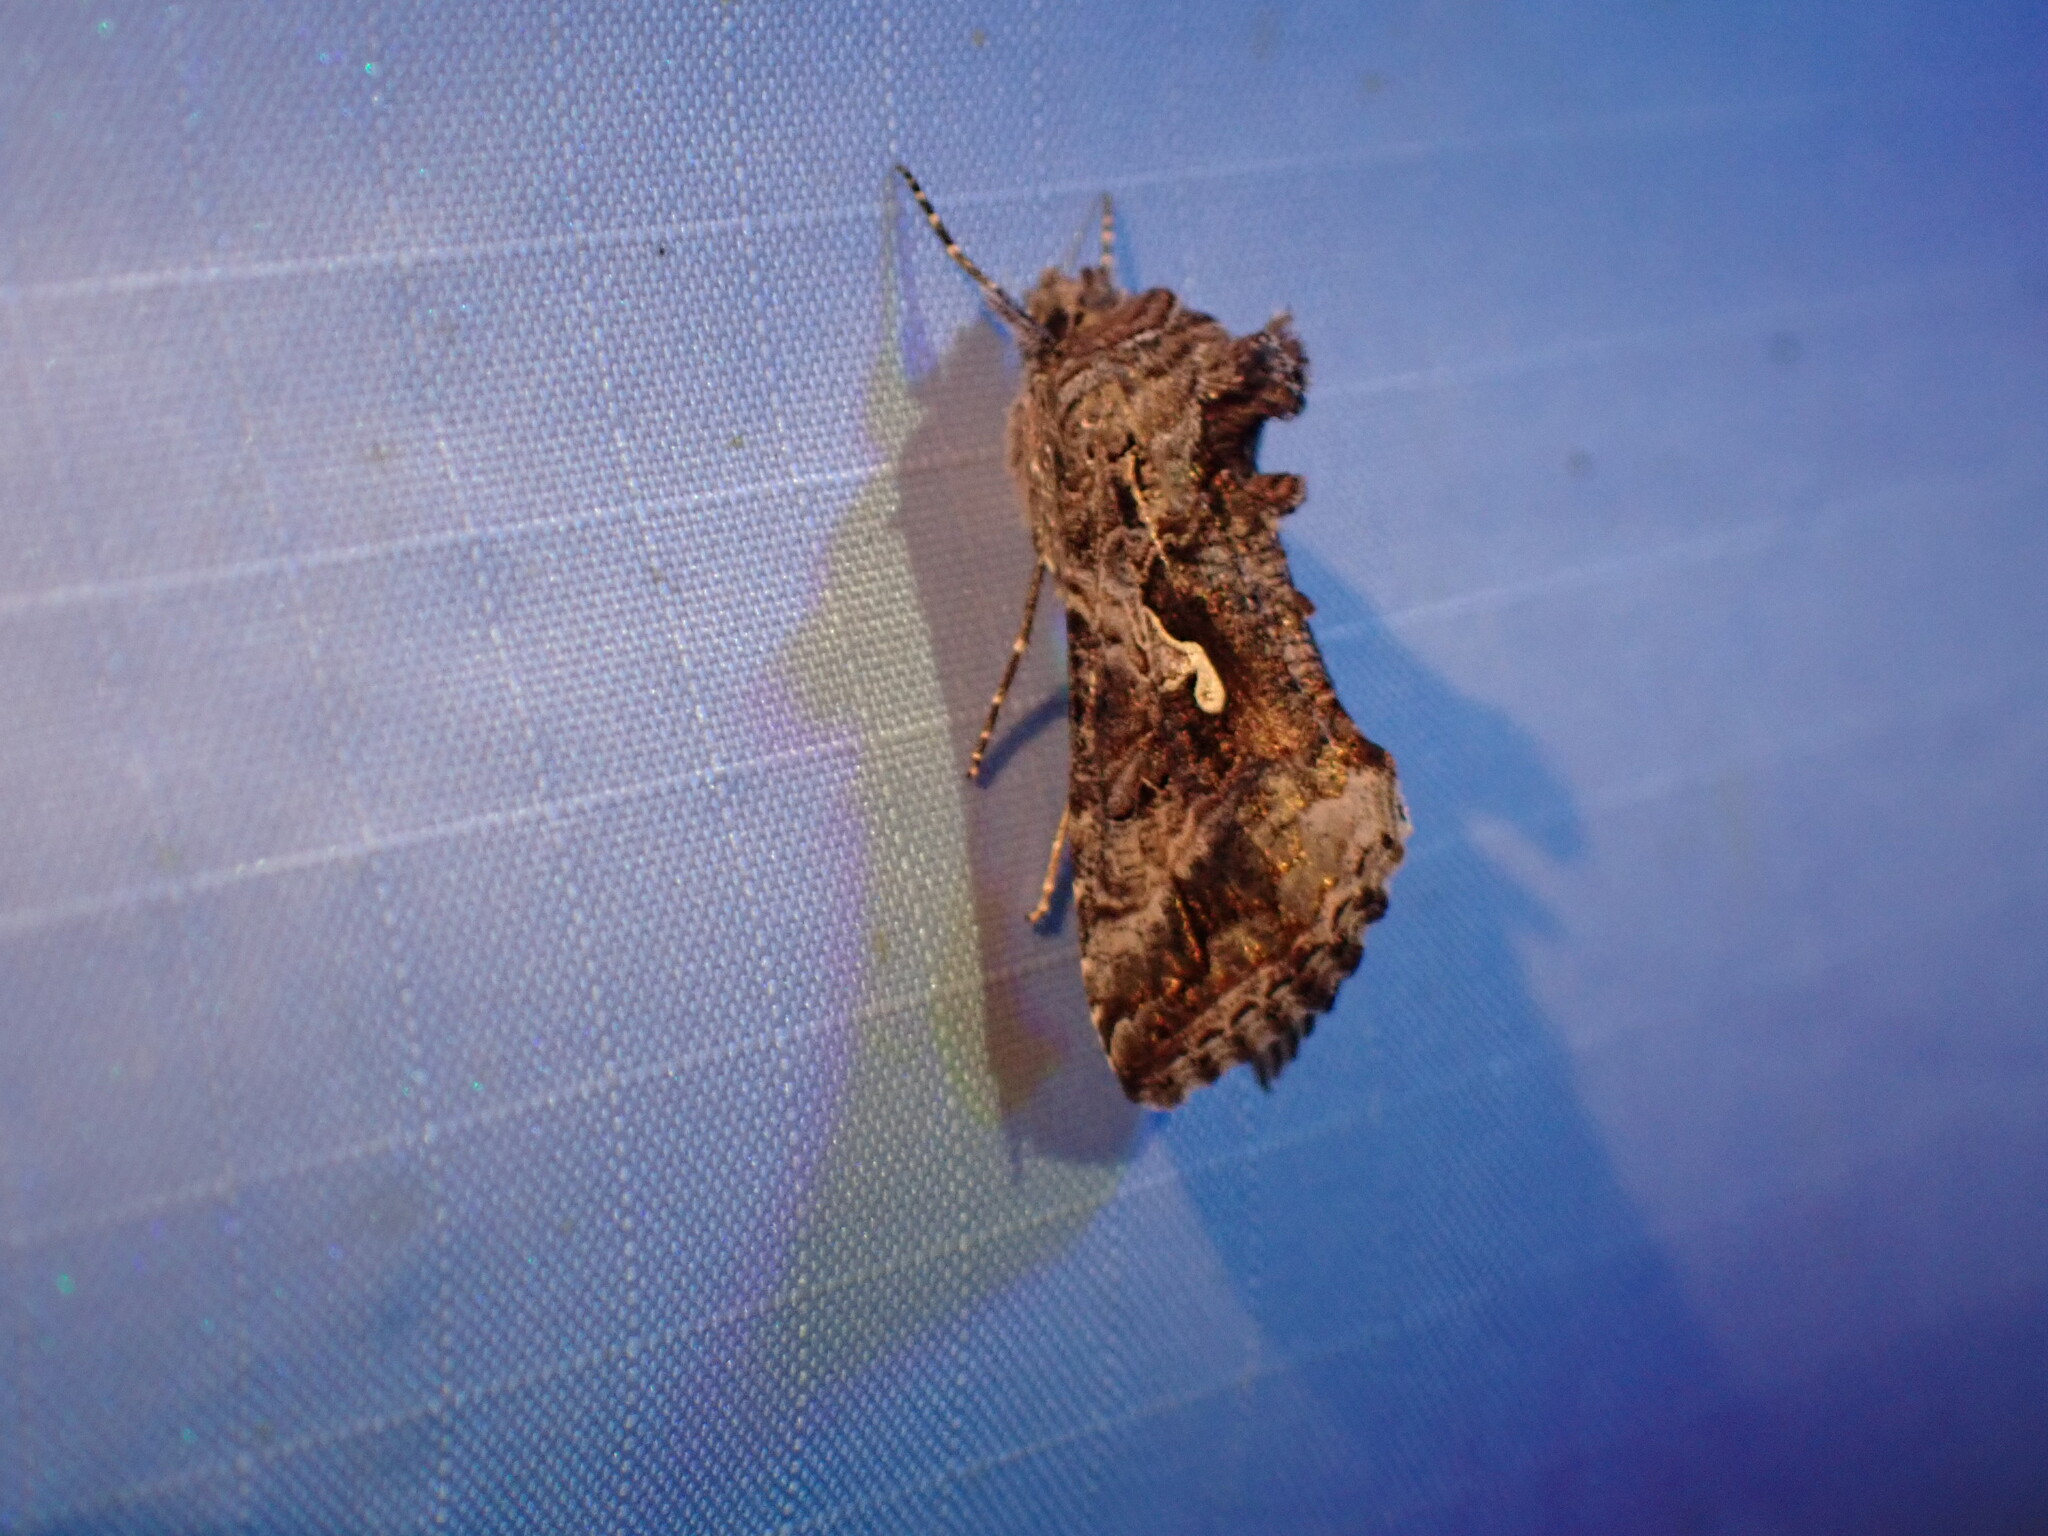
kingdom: Animalia
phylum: Arthropoda
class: Insecta
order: Lepidoptera
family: Noctuidae
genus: Autographa
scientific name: Autographa californica
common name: Alfalfa looper
